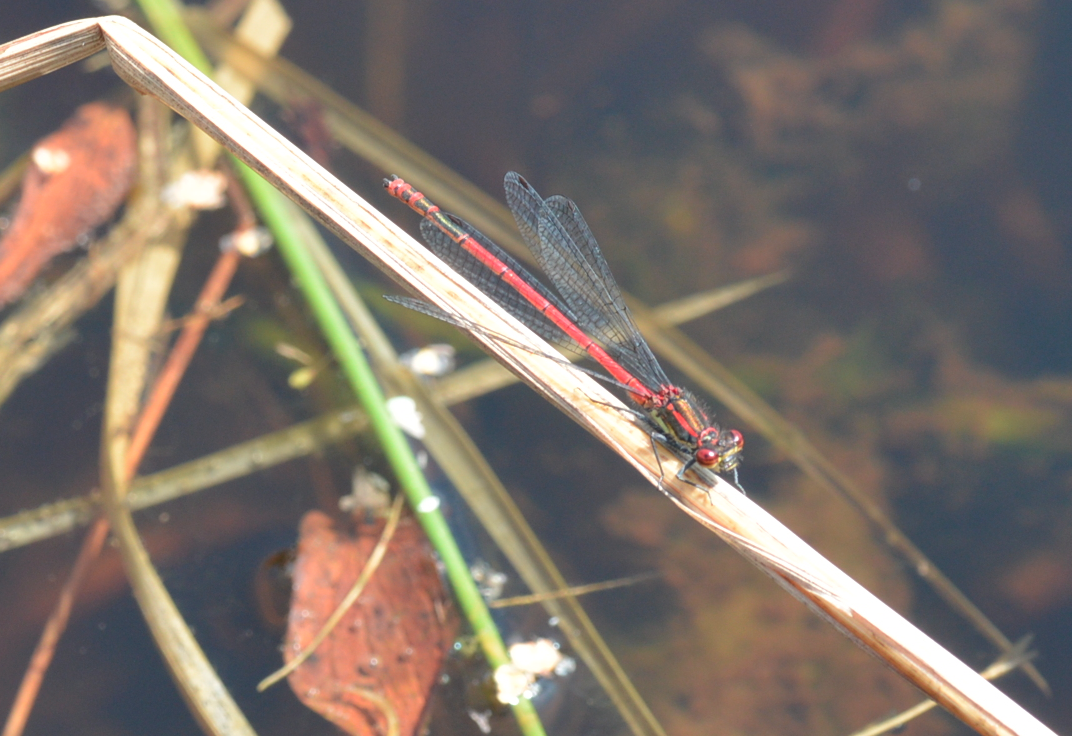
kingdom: Animalia
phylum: Arthropoda
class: Insecta
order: Odonata
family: Coenagrionidae
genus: Pyrrhosoma
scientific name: Pyrrhosoma nymphula
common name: Large red damsel
